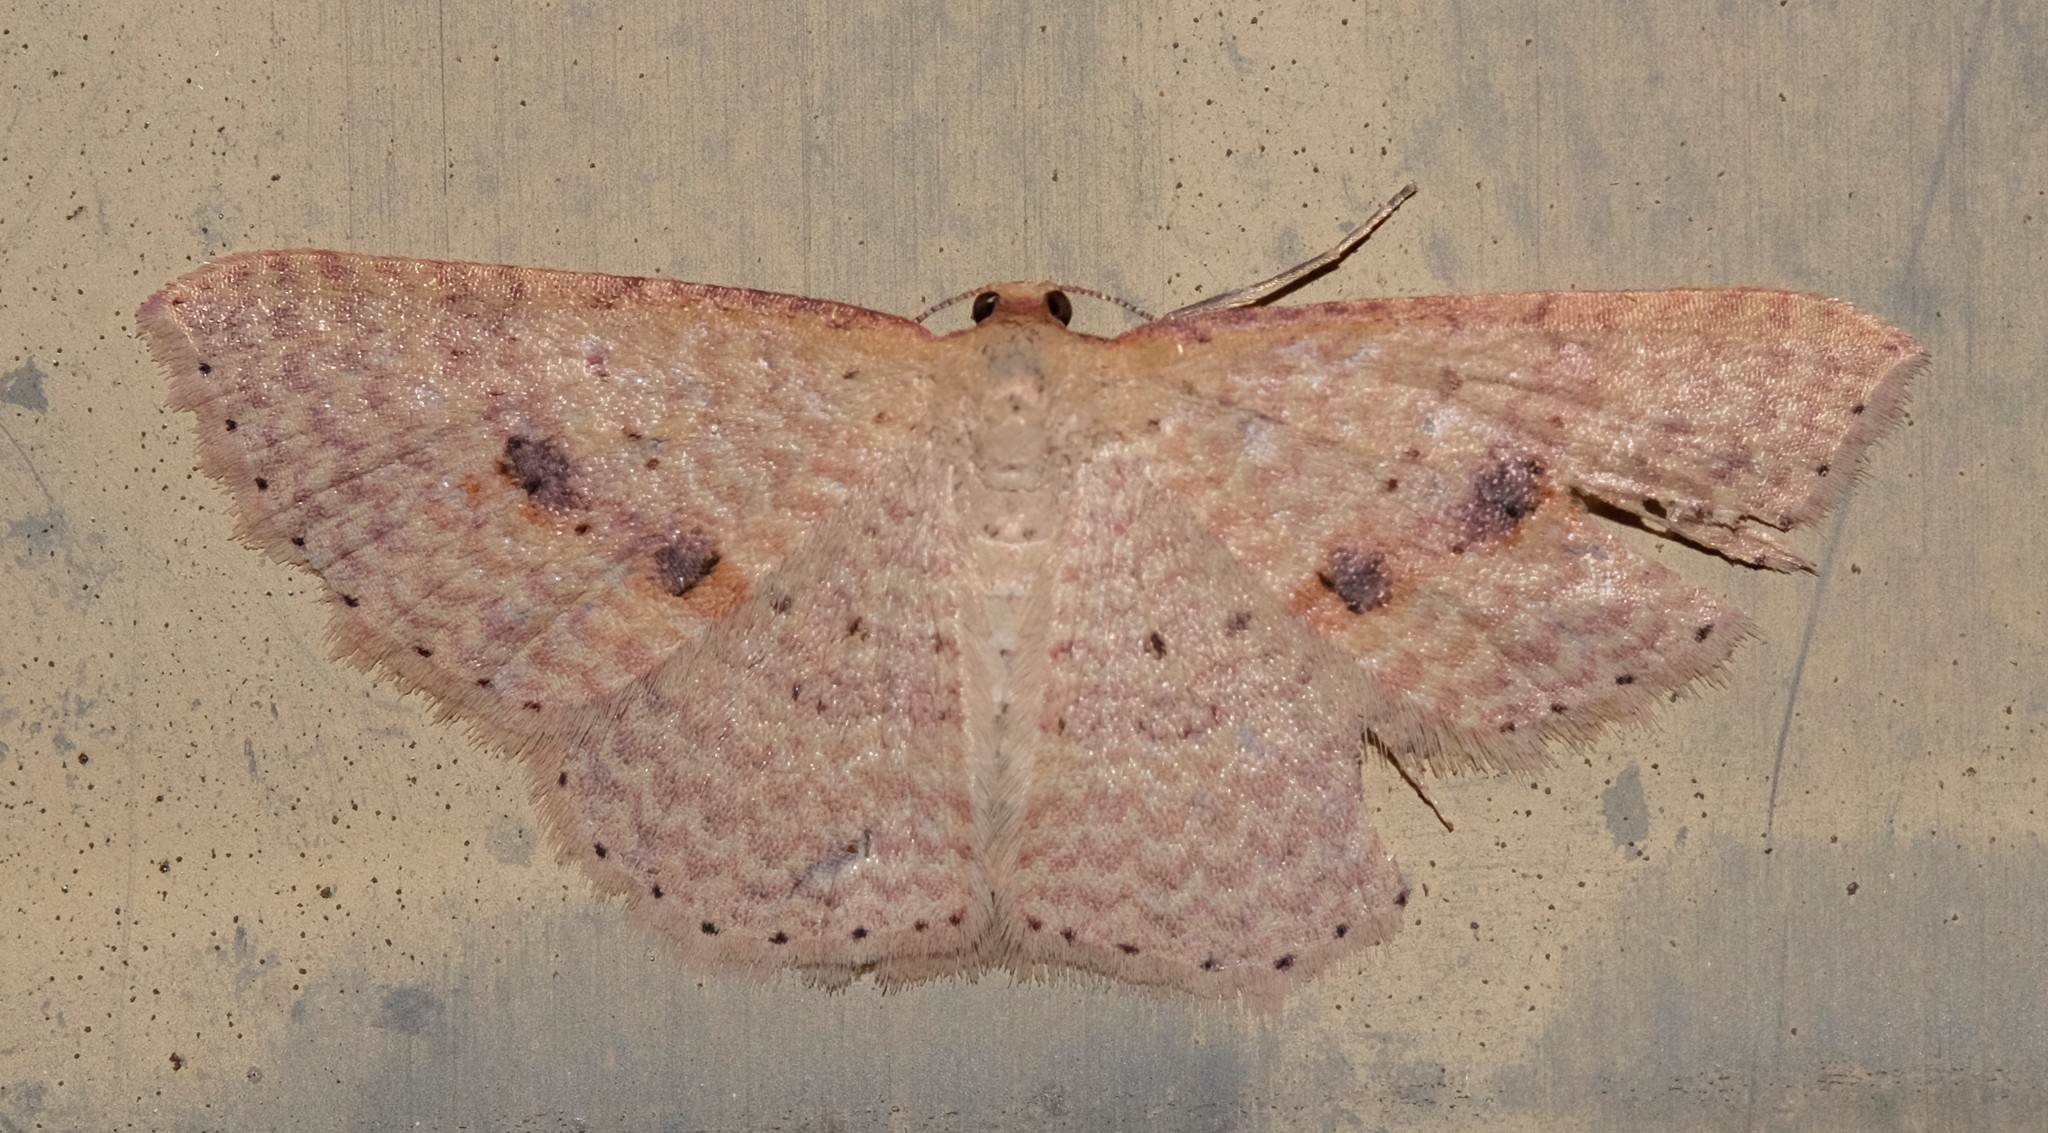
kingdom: Animalia
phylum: Arthropoda
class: Insecta
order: Lepidoptera
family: Geometridae
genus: Epicyme
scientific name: Epicyme rubropunctaria
